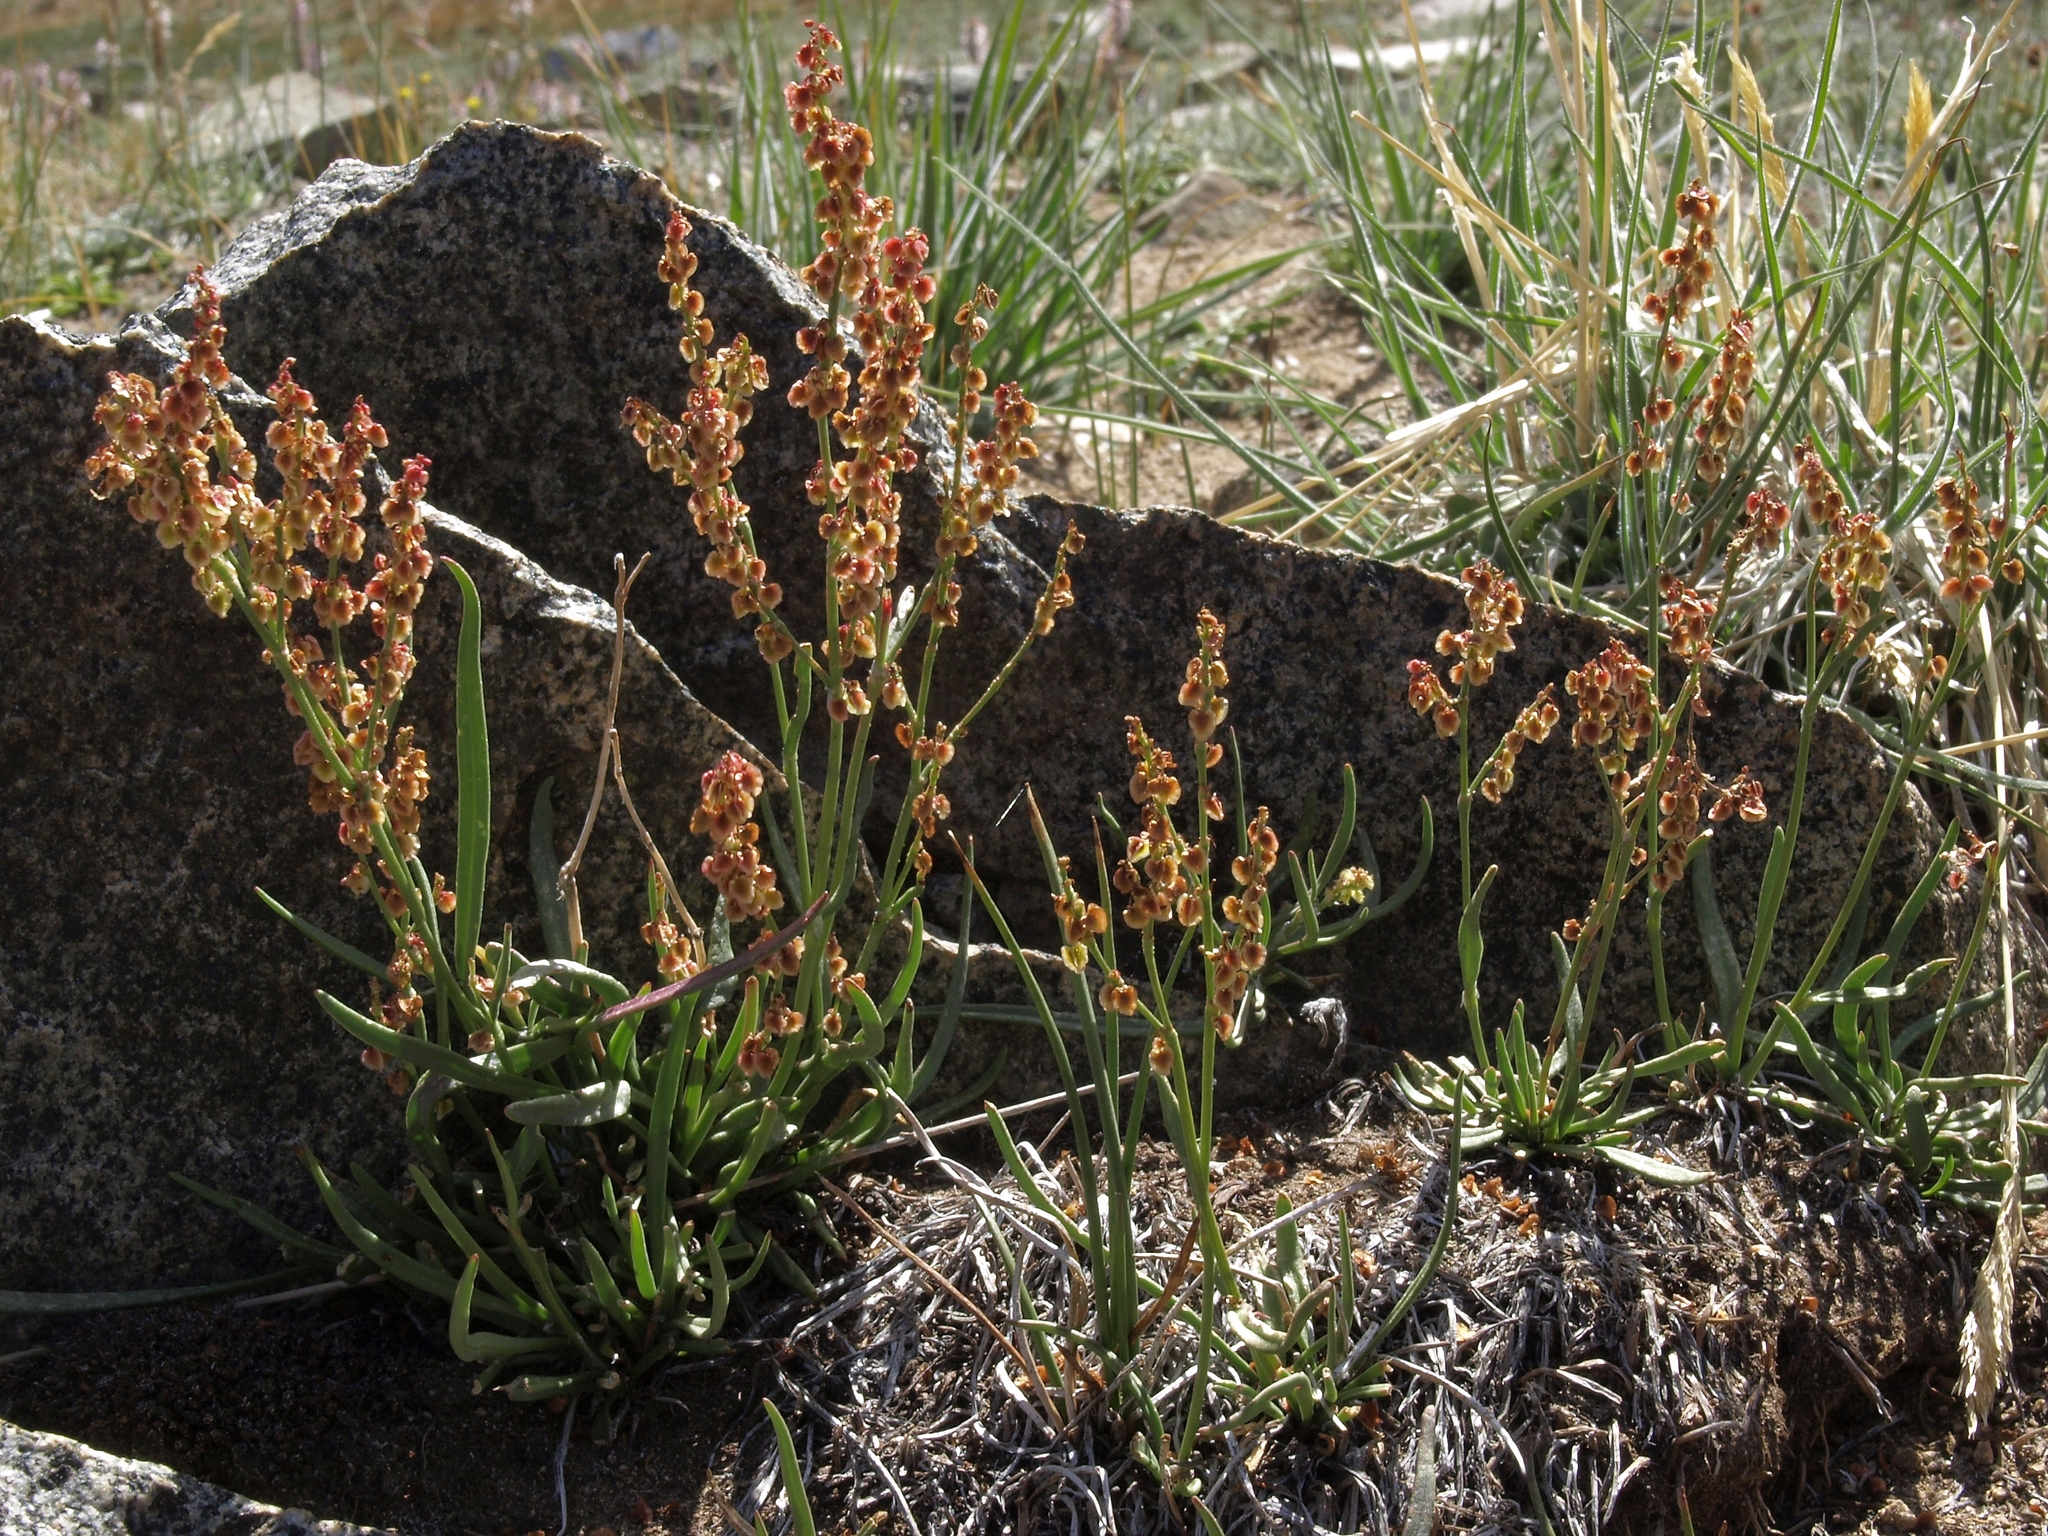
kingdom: Plantae
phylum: Tracheophyta
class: Magnoliopsida
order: Caryophyllales
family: Polygonaceae
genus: Rumex
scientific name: Rumex paucifolius
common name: Alpine sheep sorrel
